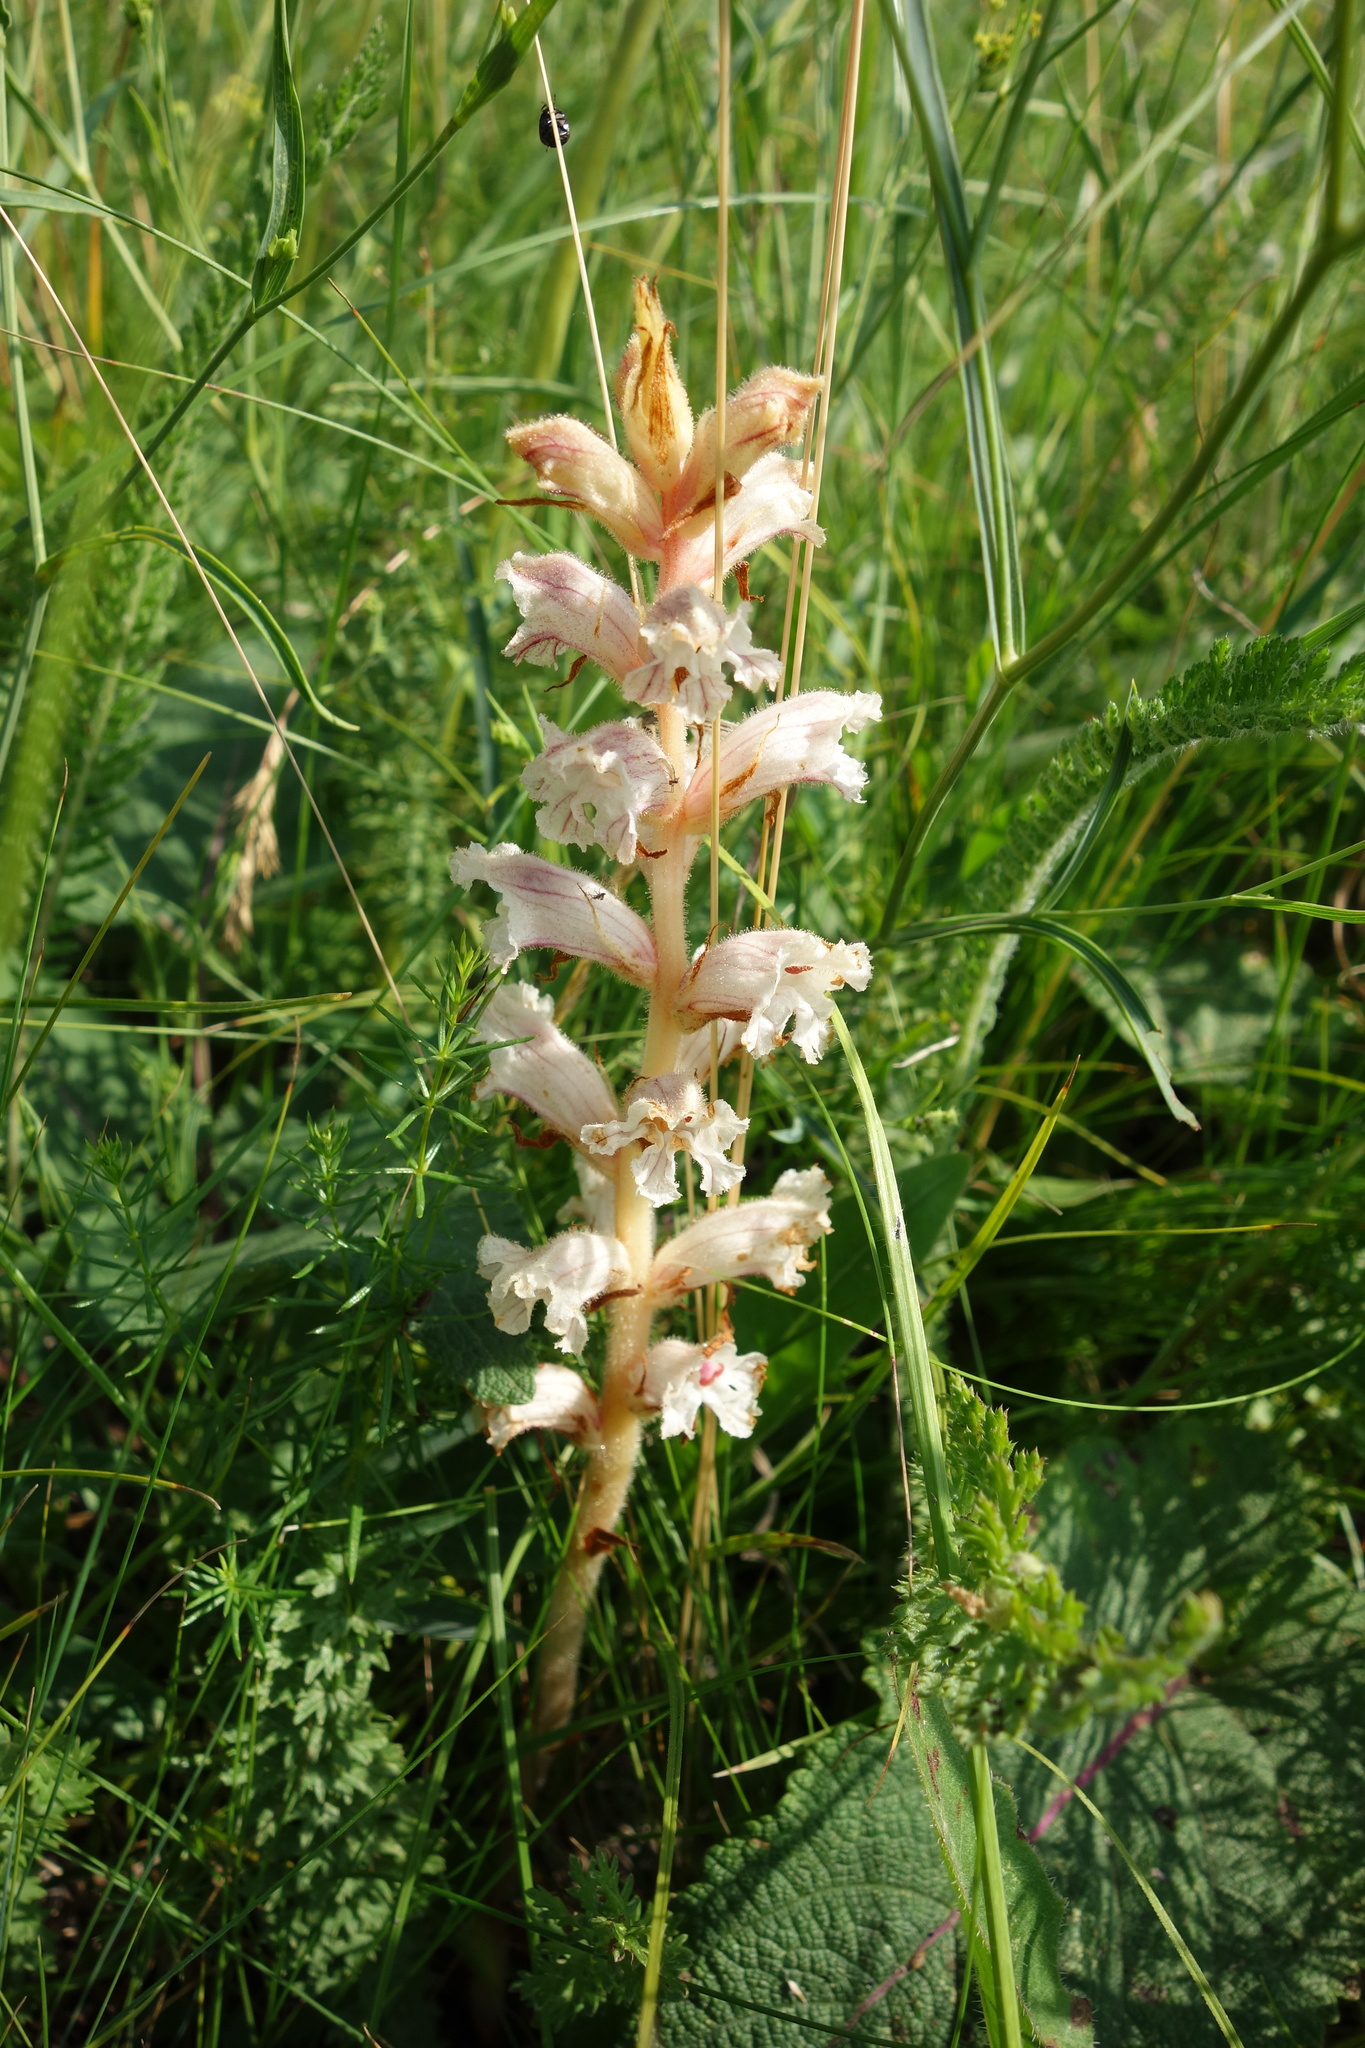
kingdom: Plantae
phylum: Tracheophyta
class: Magnoliopsida
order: Lamiales
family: Orobanchaceae
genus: Orobanche
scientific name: Orobanche alba
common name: Thyme broomrape
